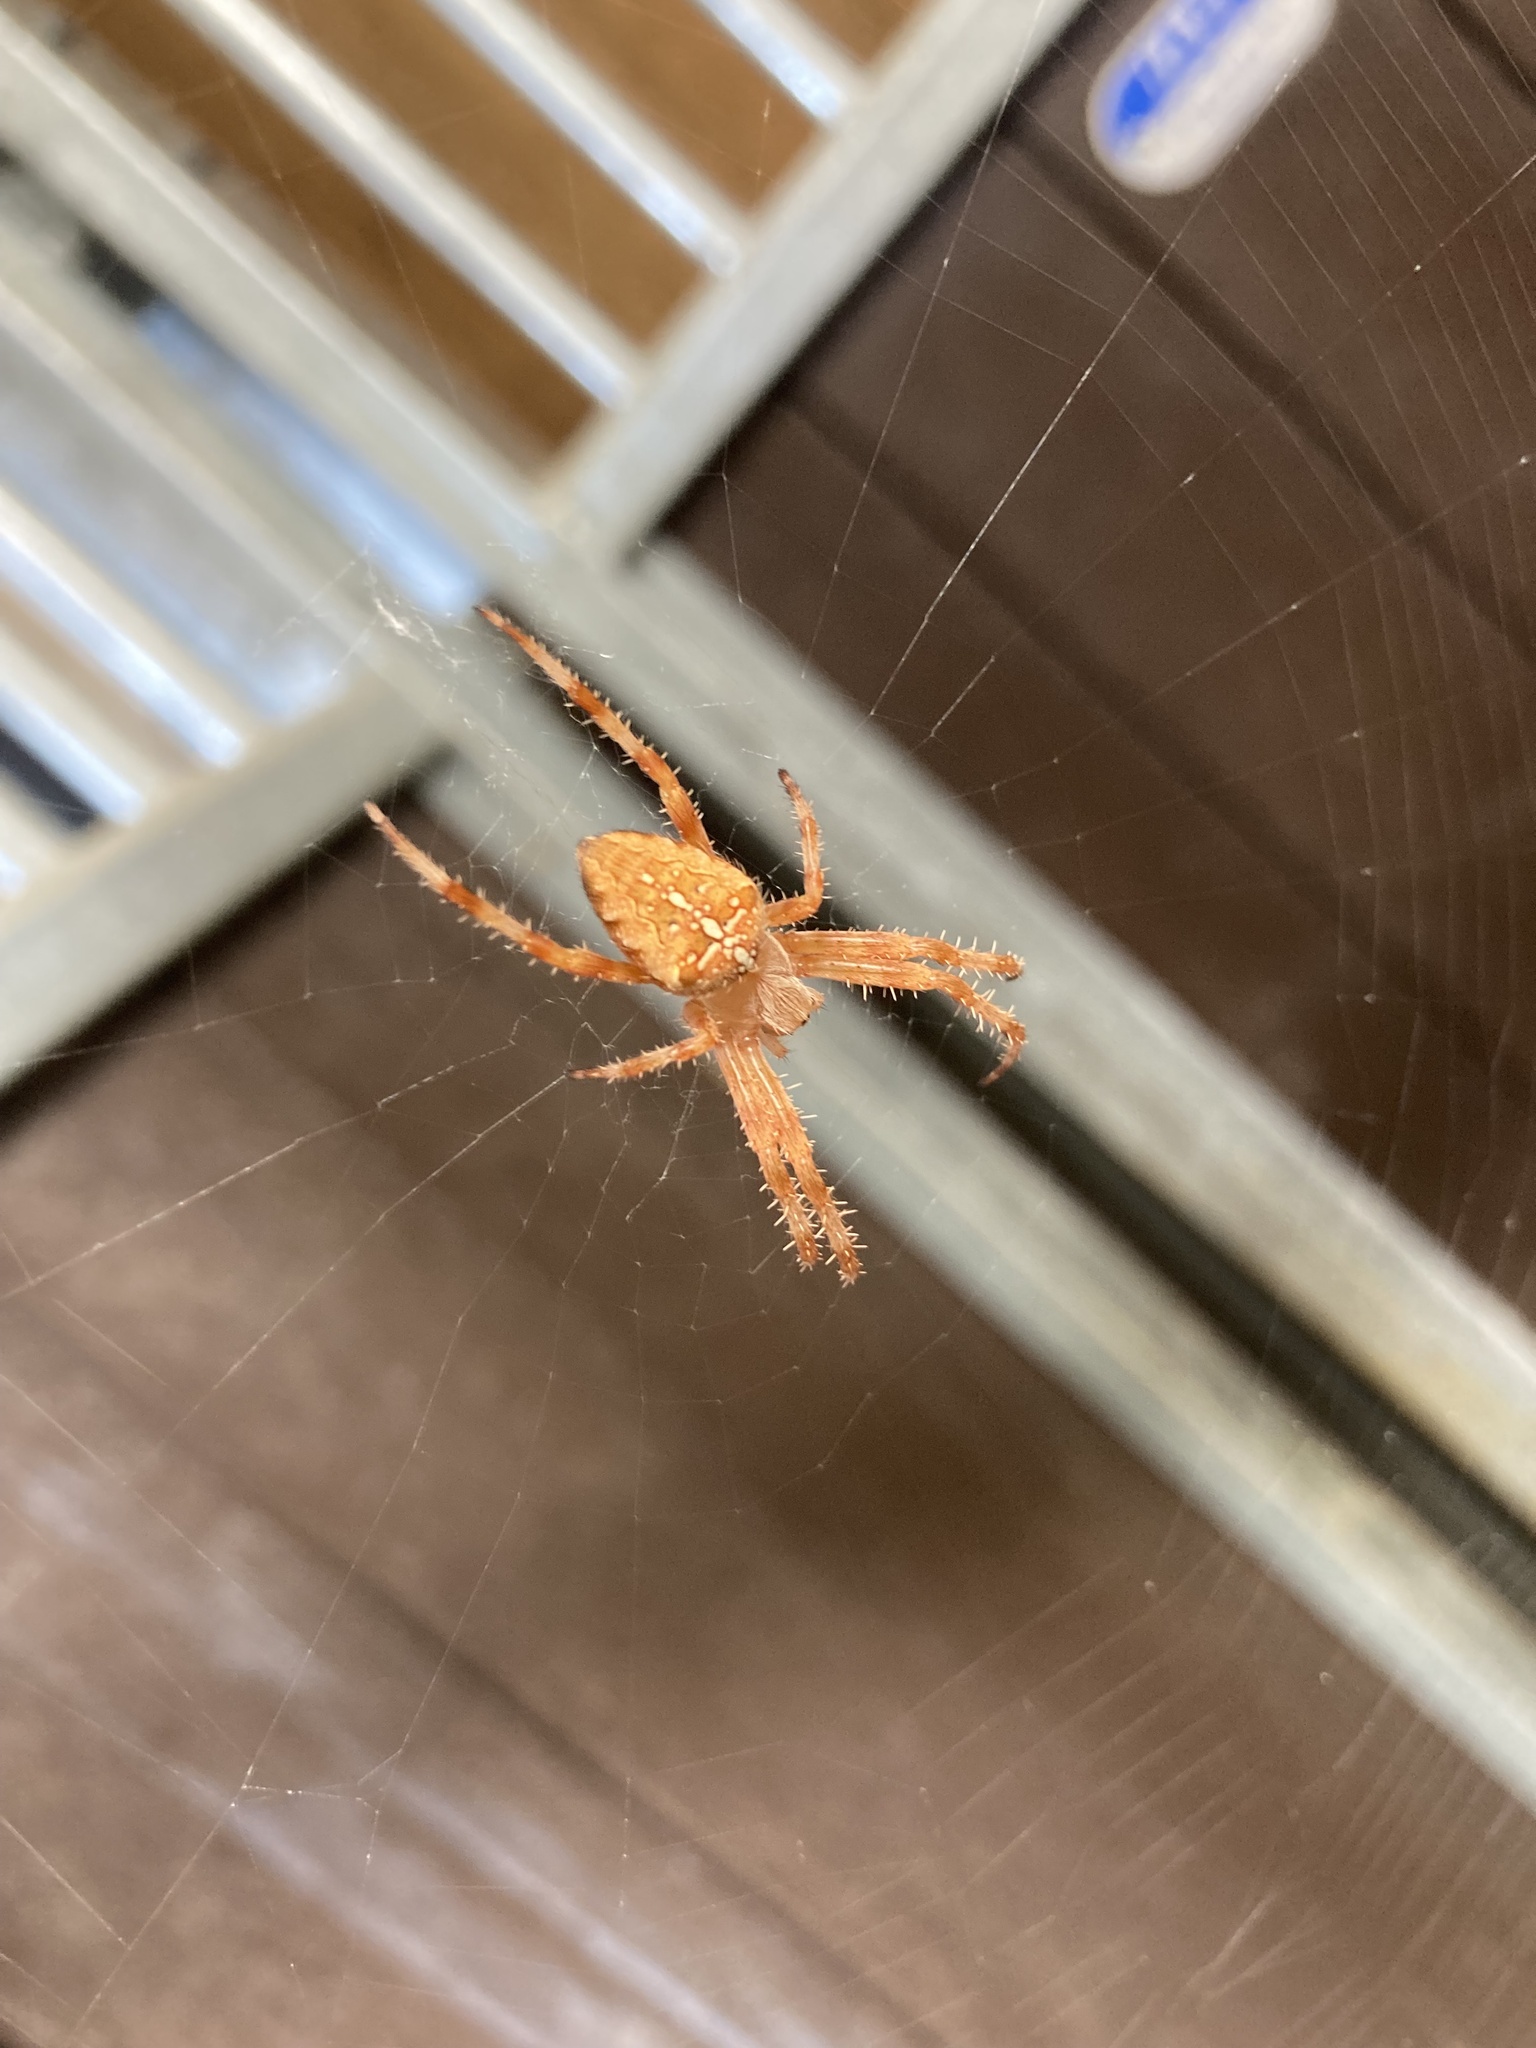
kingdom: Animalia
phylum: Arthropoda
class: Arachnida
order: Araneae
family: Araneidae
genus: Araneus
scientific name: Araneus diadematus
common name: Cross orbweaver
